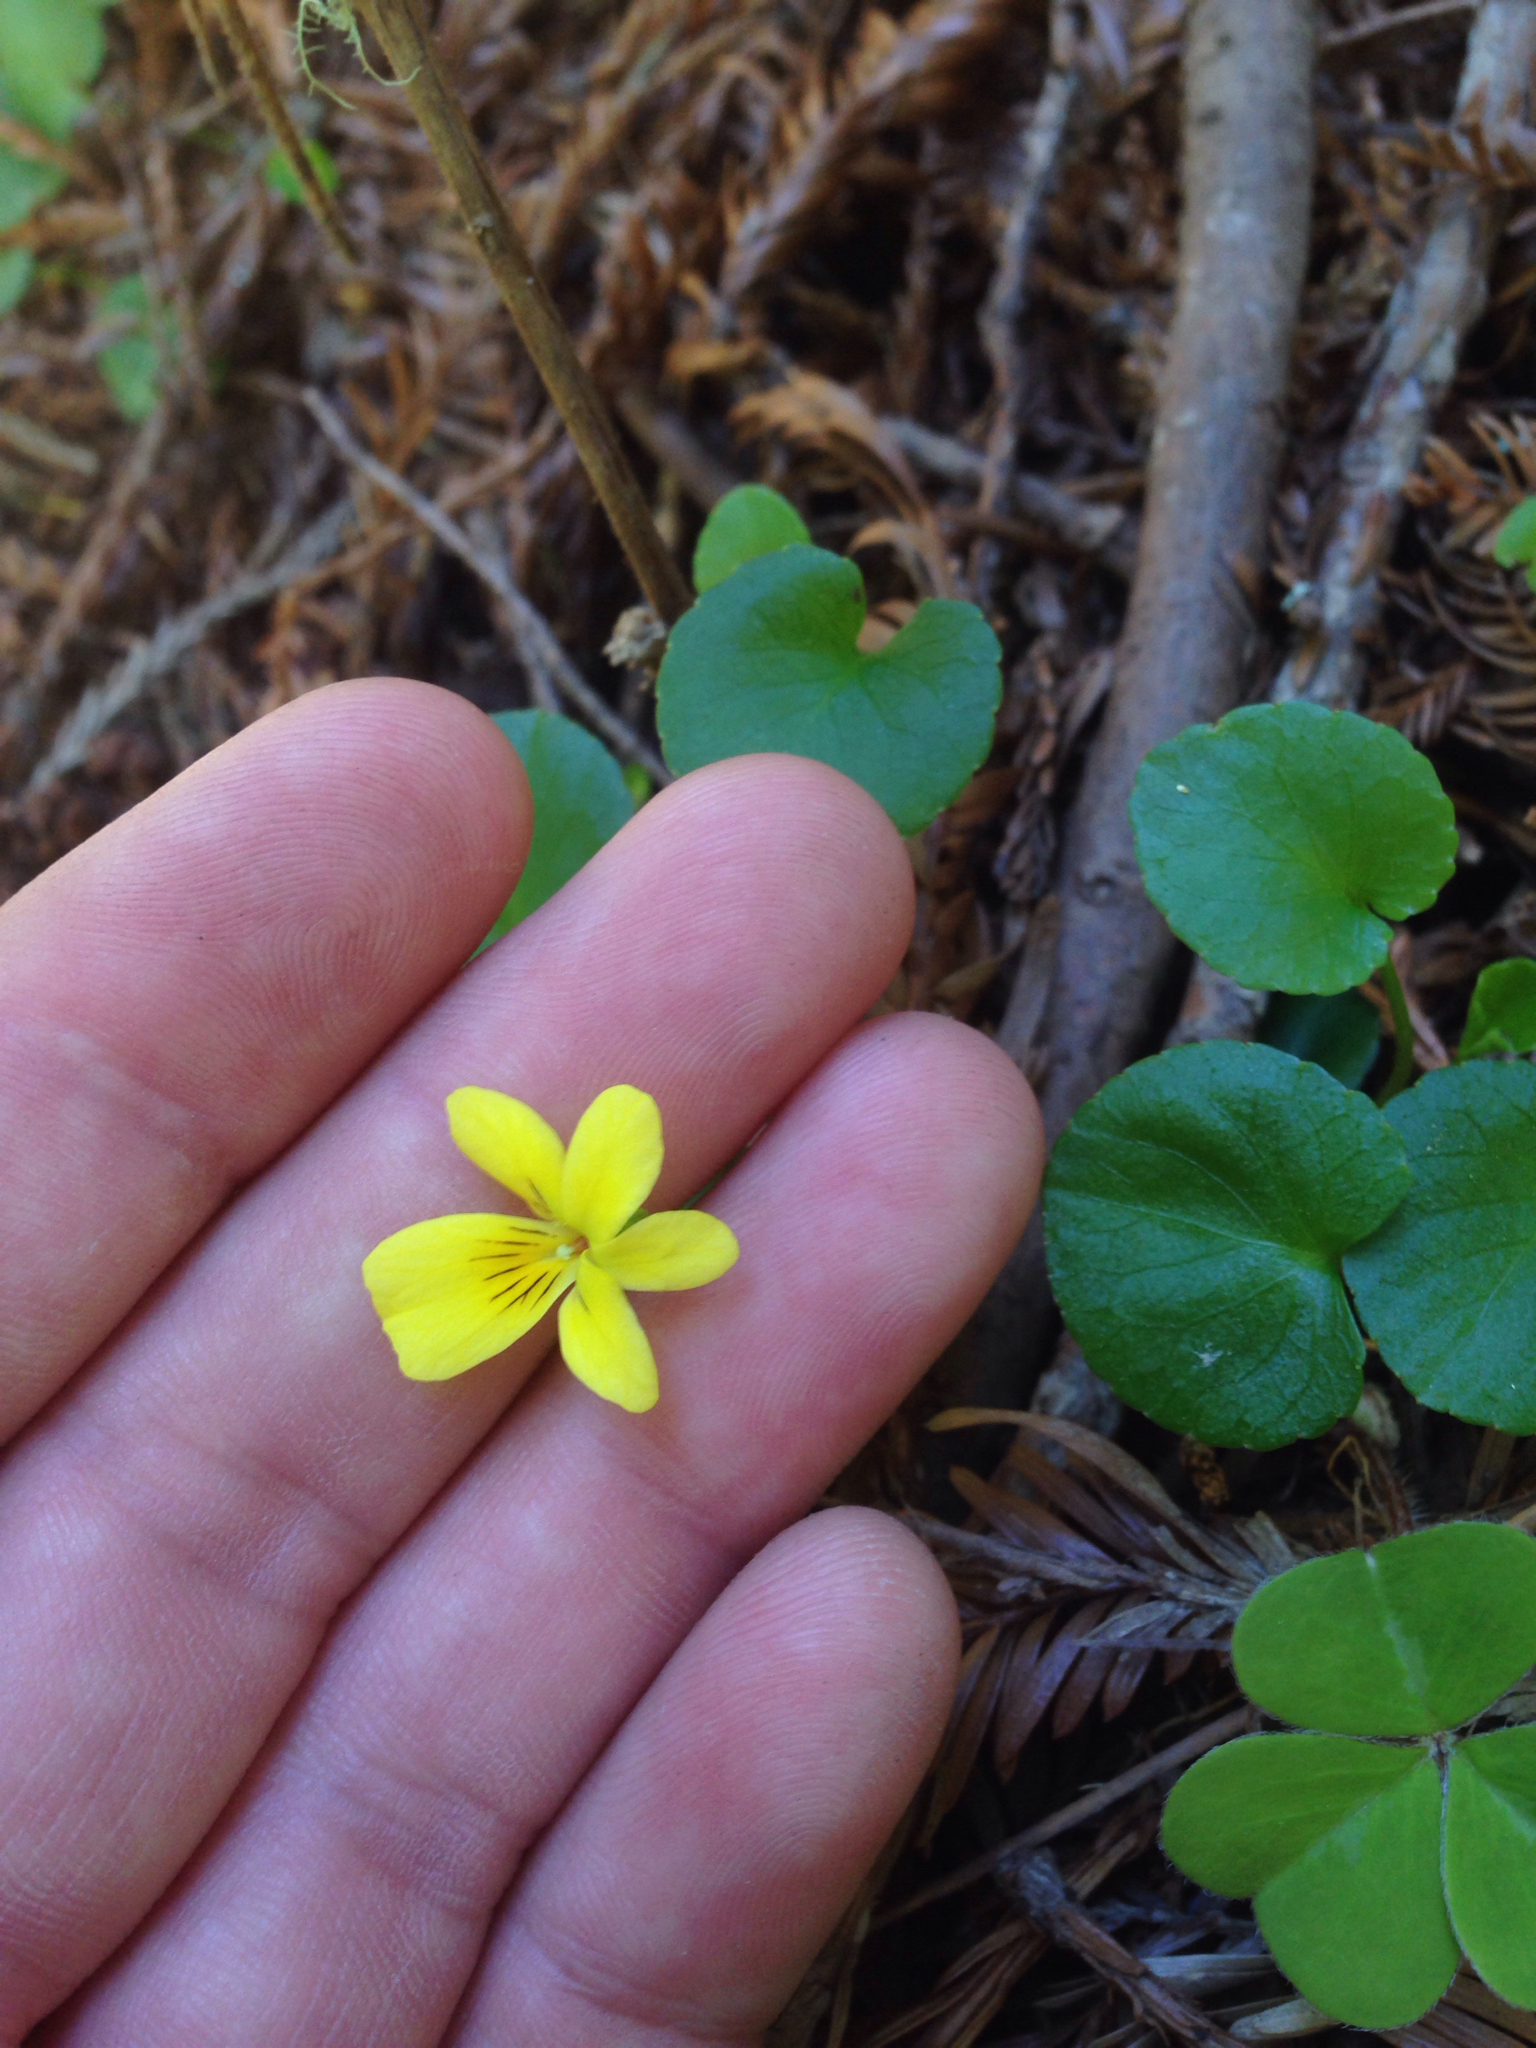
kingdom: Plantae
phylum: Tracheophyta
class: Magnoliopsida
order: Malpighiales
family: Violaceae
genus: Viola
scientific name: Viola sempervirens
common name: Evergreen violet
